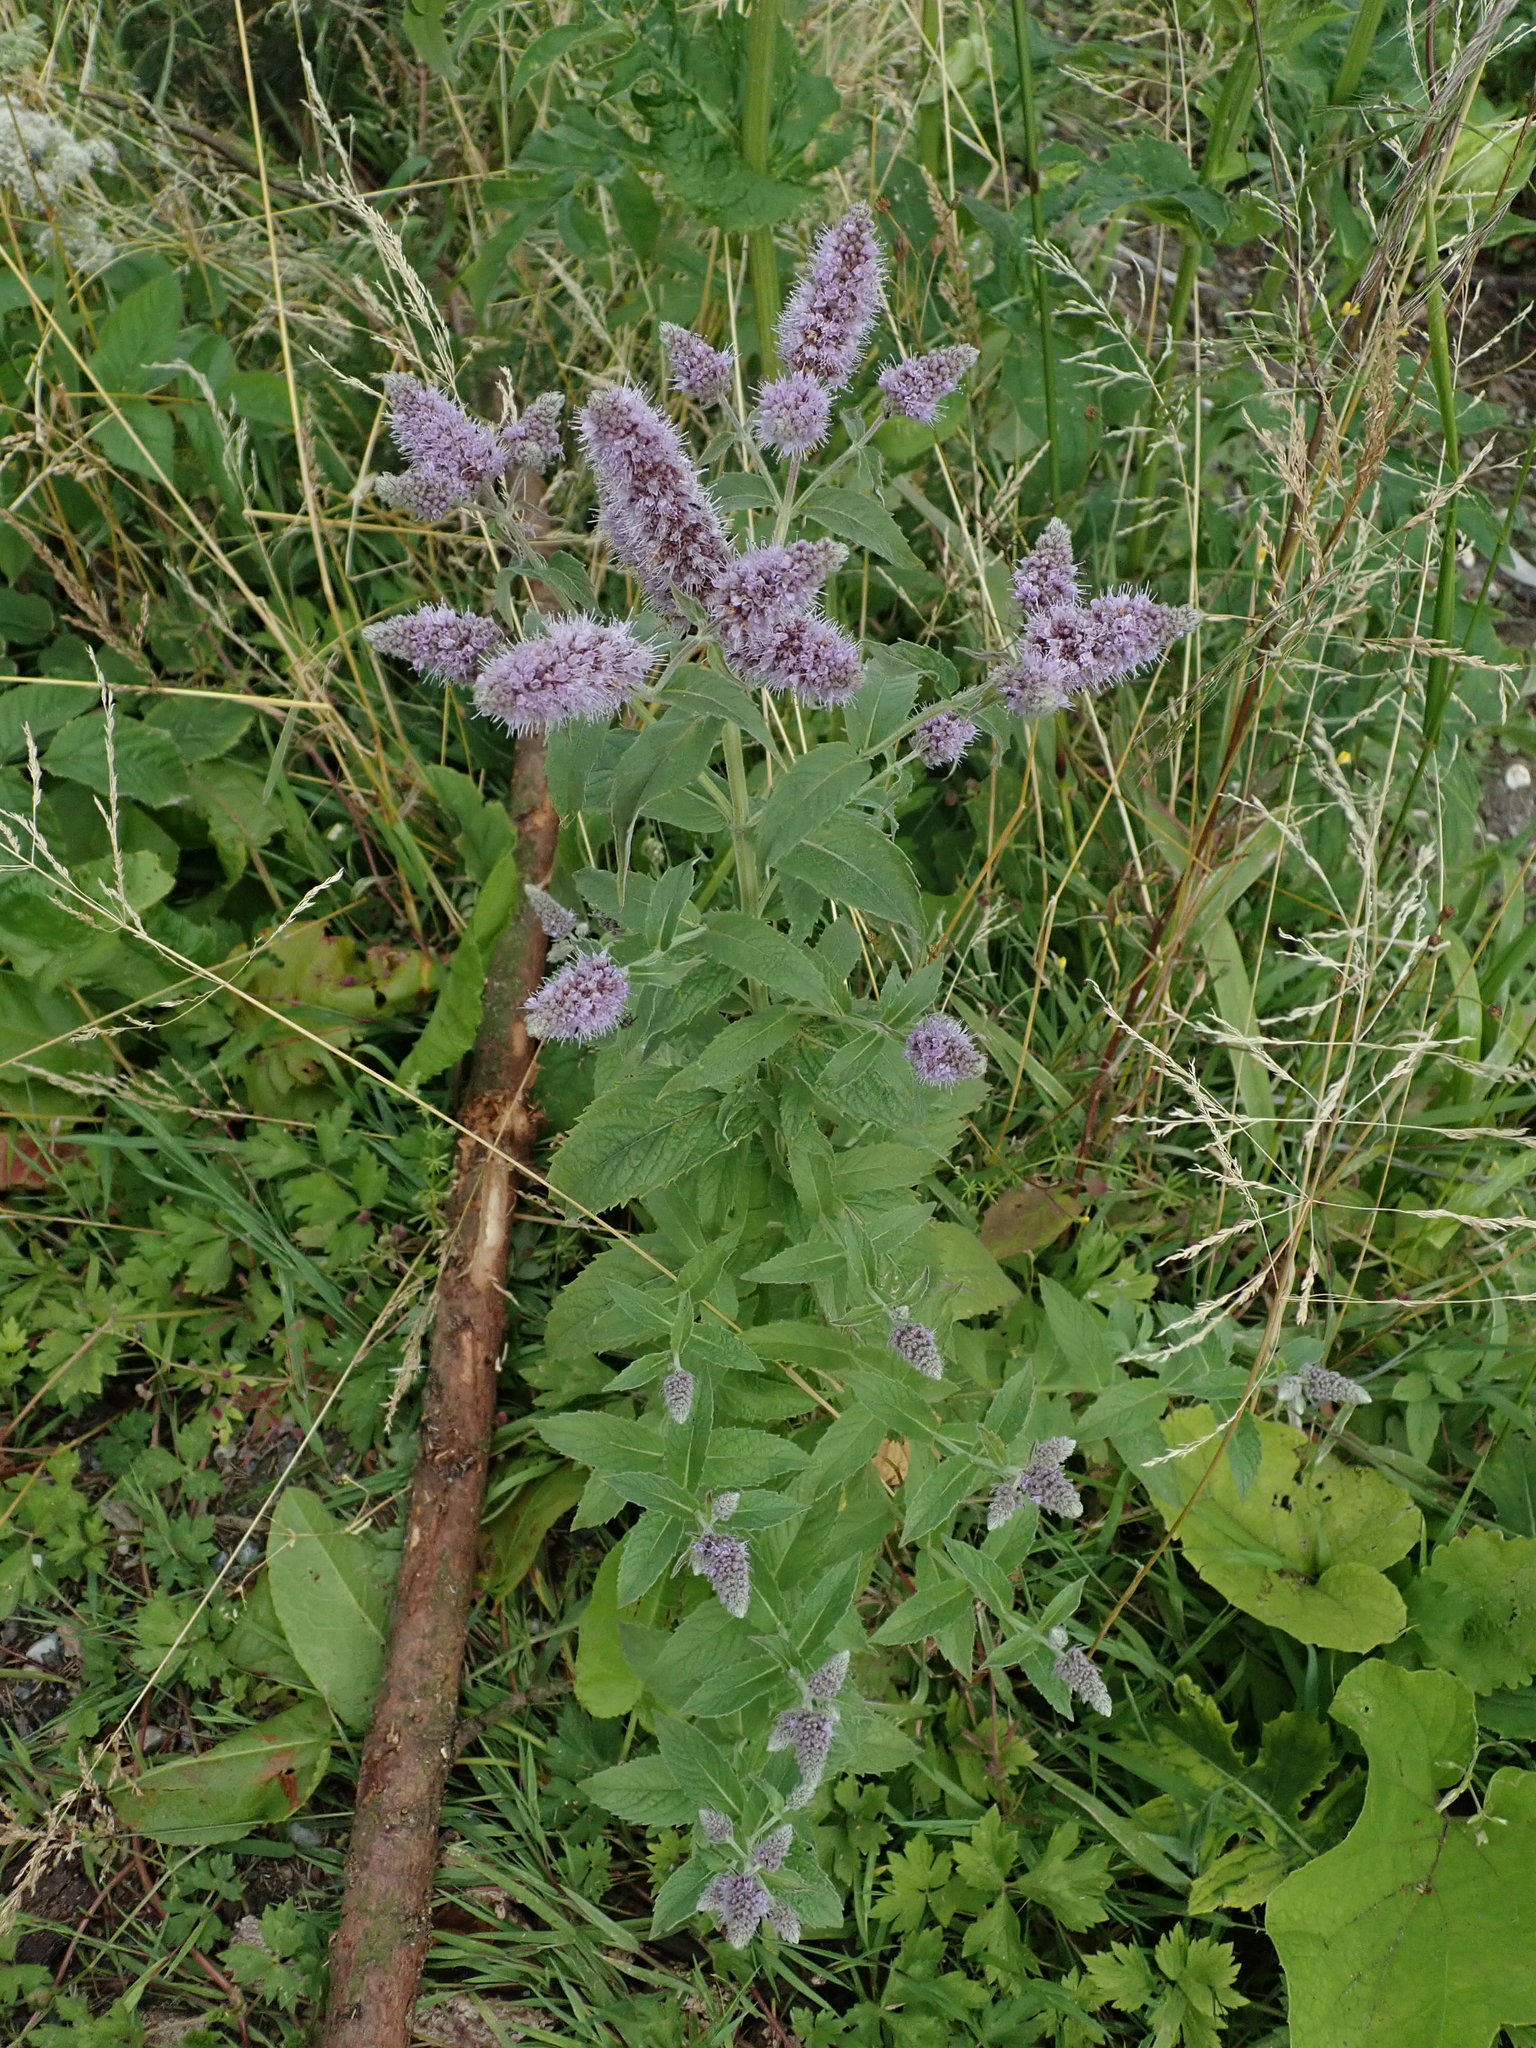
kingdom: Plantae
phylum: Tracheophyta
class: Magnoliopsida
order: Lamiales
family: Lamiaceae
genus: Mentha
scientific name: Mentha longifolia
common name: Horse mint
